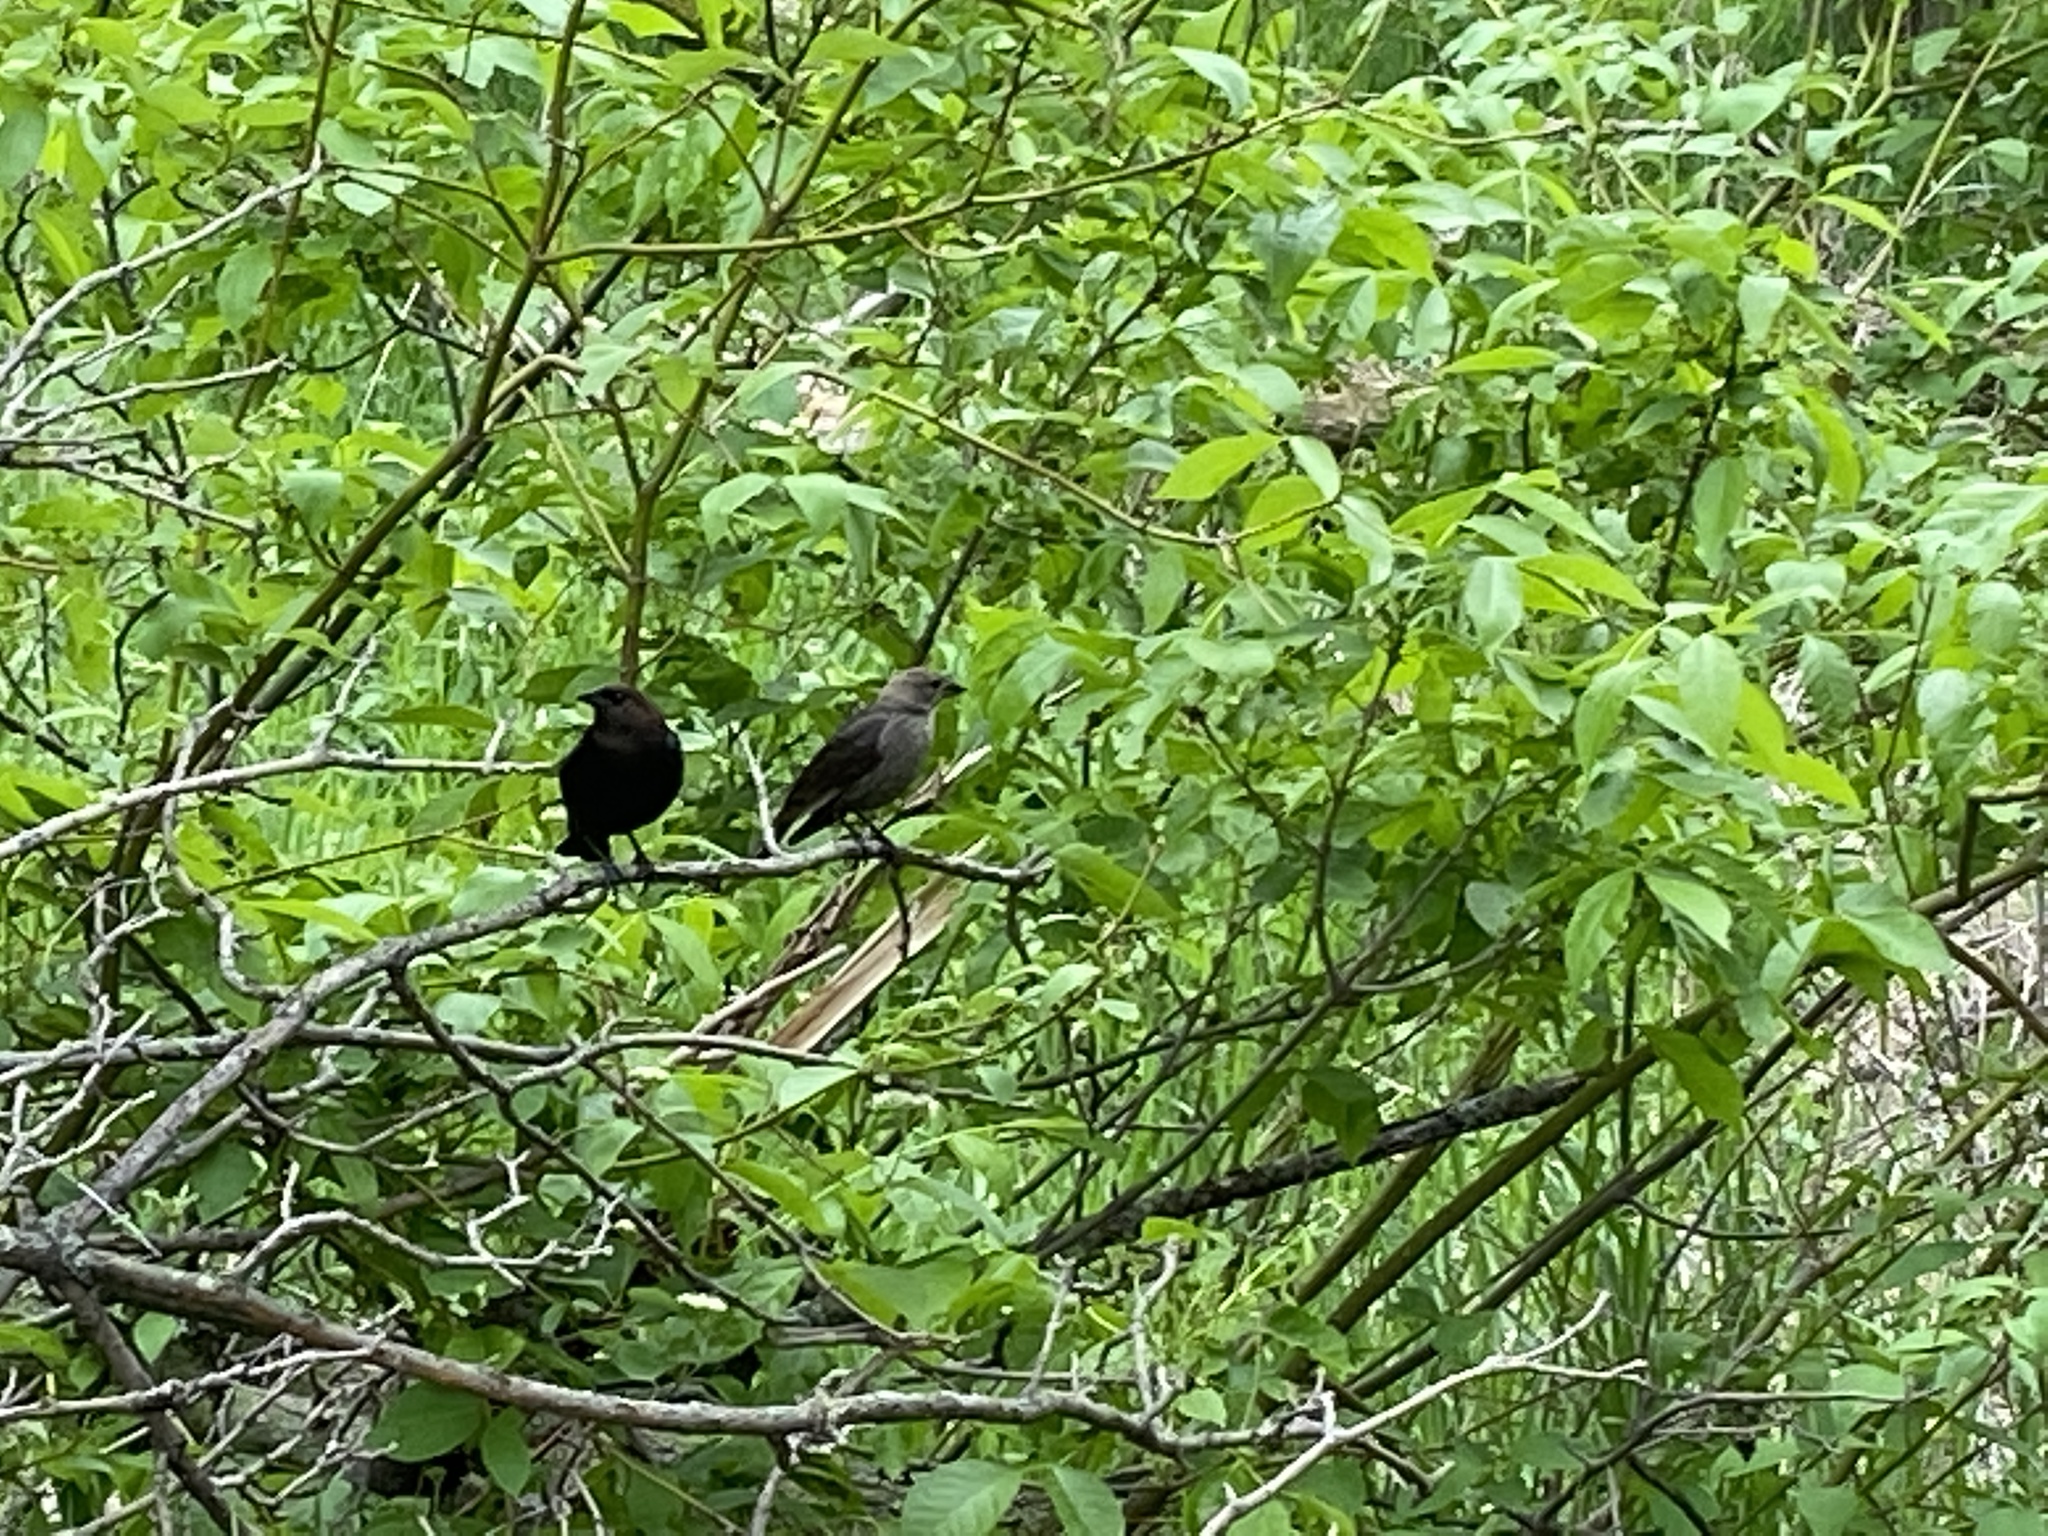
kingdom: Animalia
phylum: Chordata
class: Aves
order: Passeriformes
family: Icteridae
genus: Molothrus
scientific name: Molothrus ater
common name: Brown-headed cowbird
